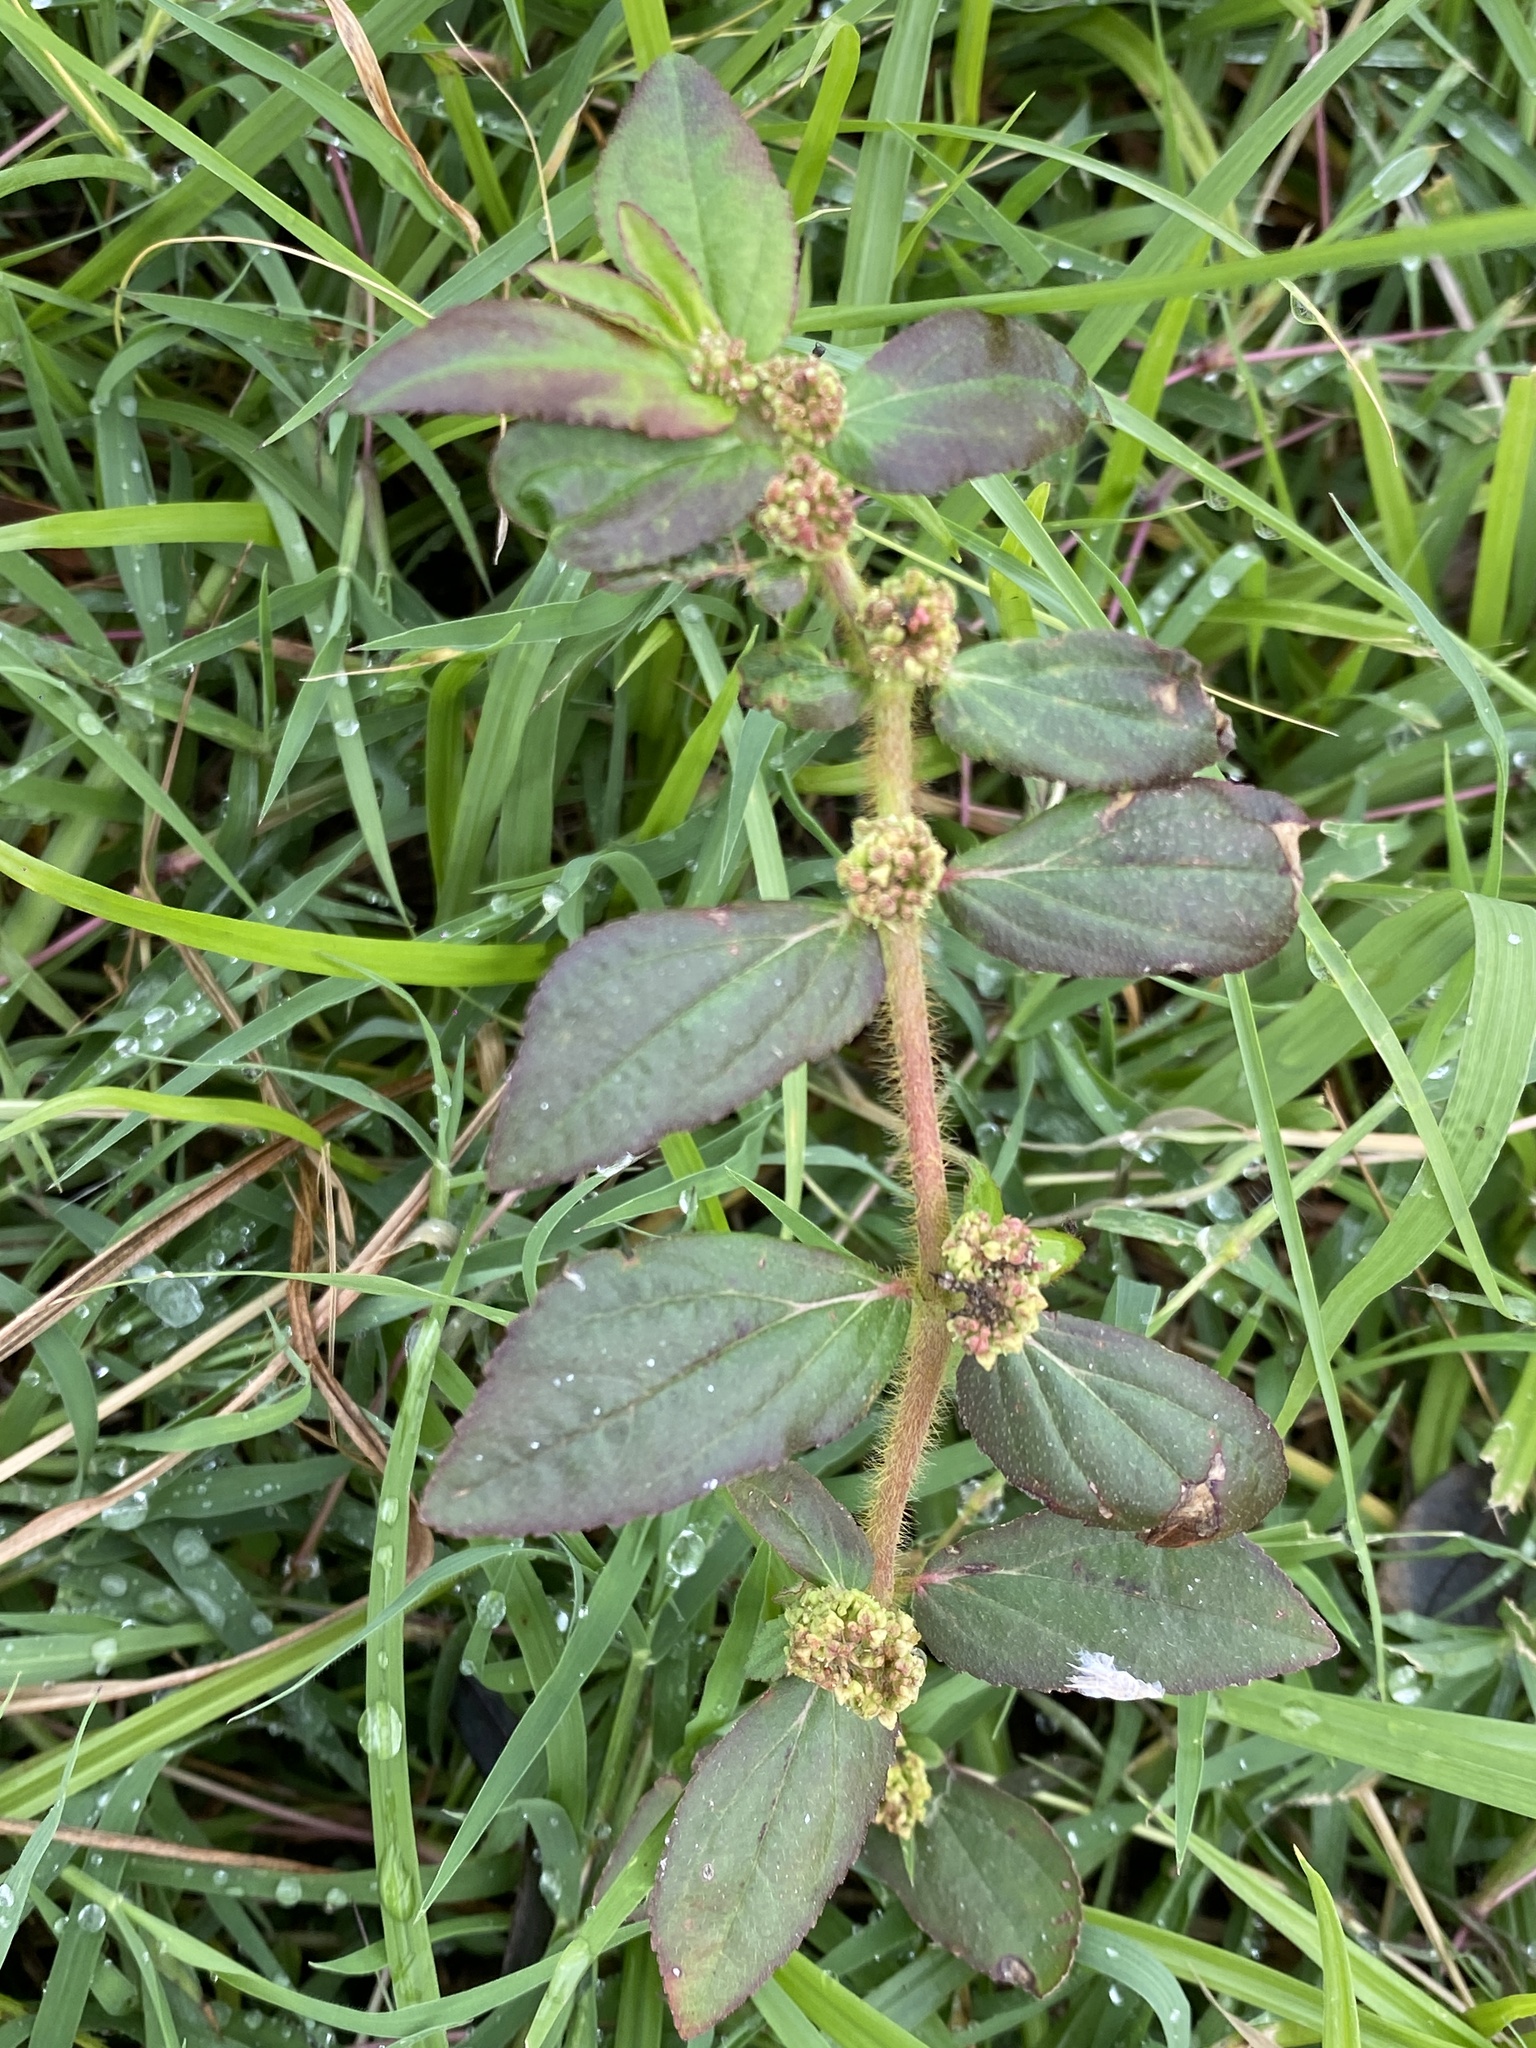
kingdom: Plantae
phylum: Tracheophyta
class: Magnoliopsida
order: Malpighiales
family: Euphorbiaceae
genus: Euphorbia
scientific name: Euphorbia hirta
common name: Pillpod sandmat
